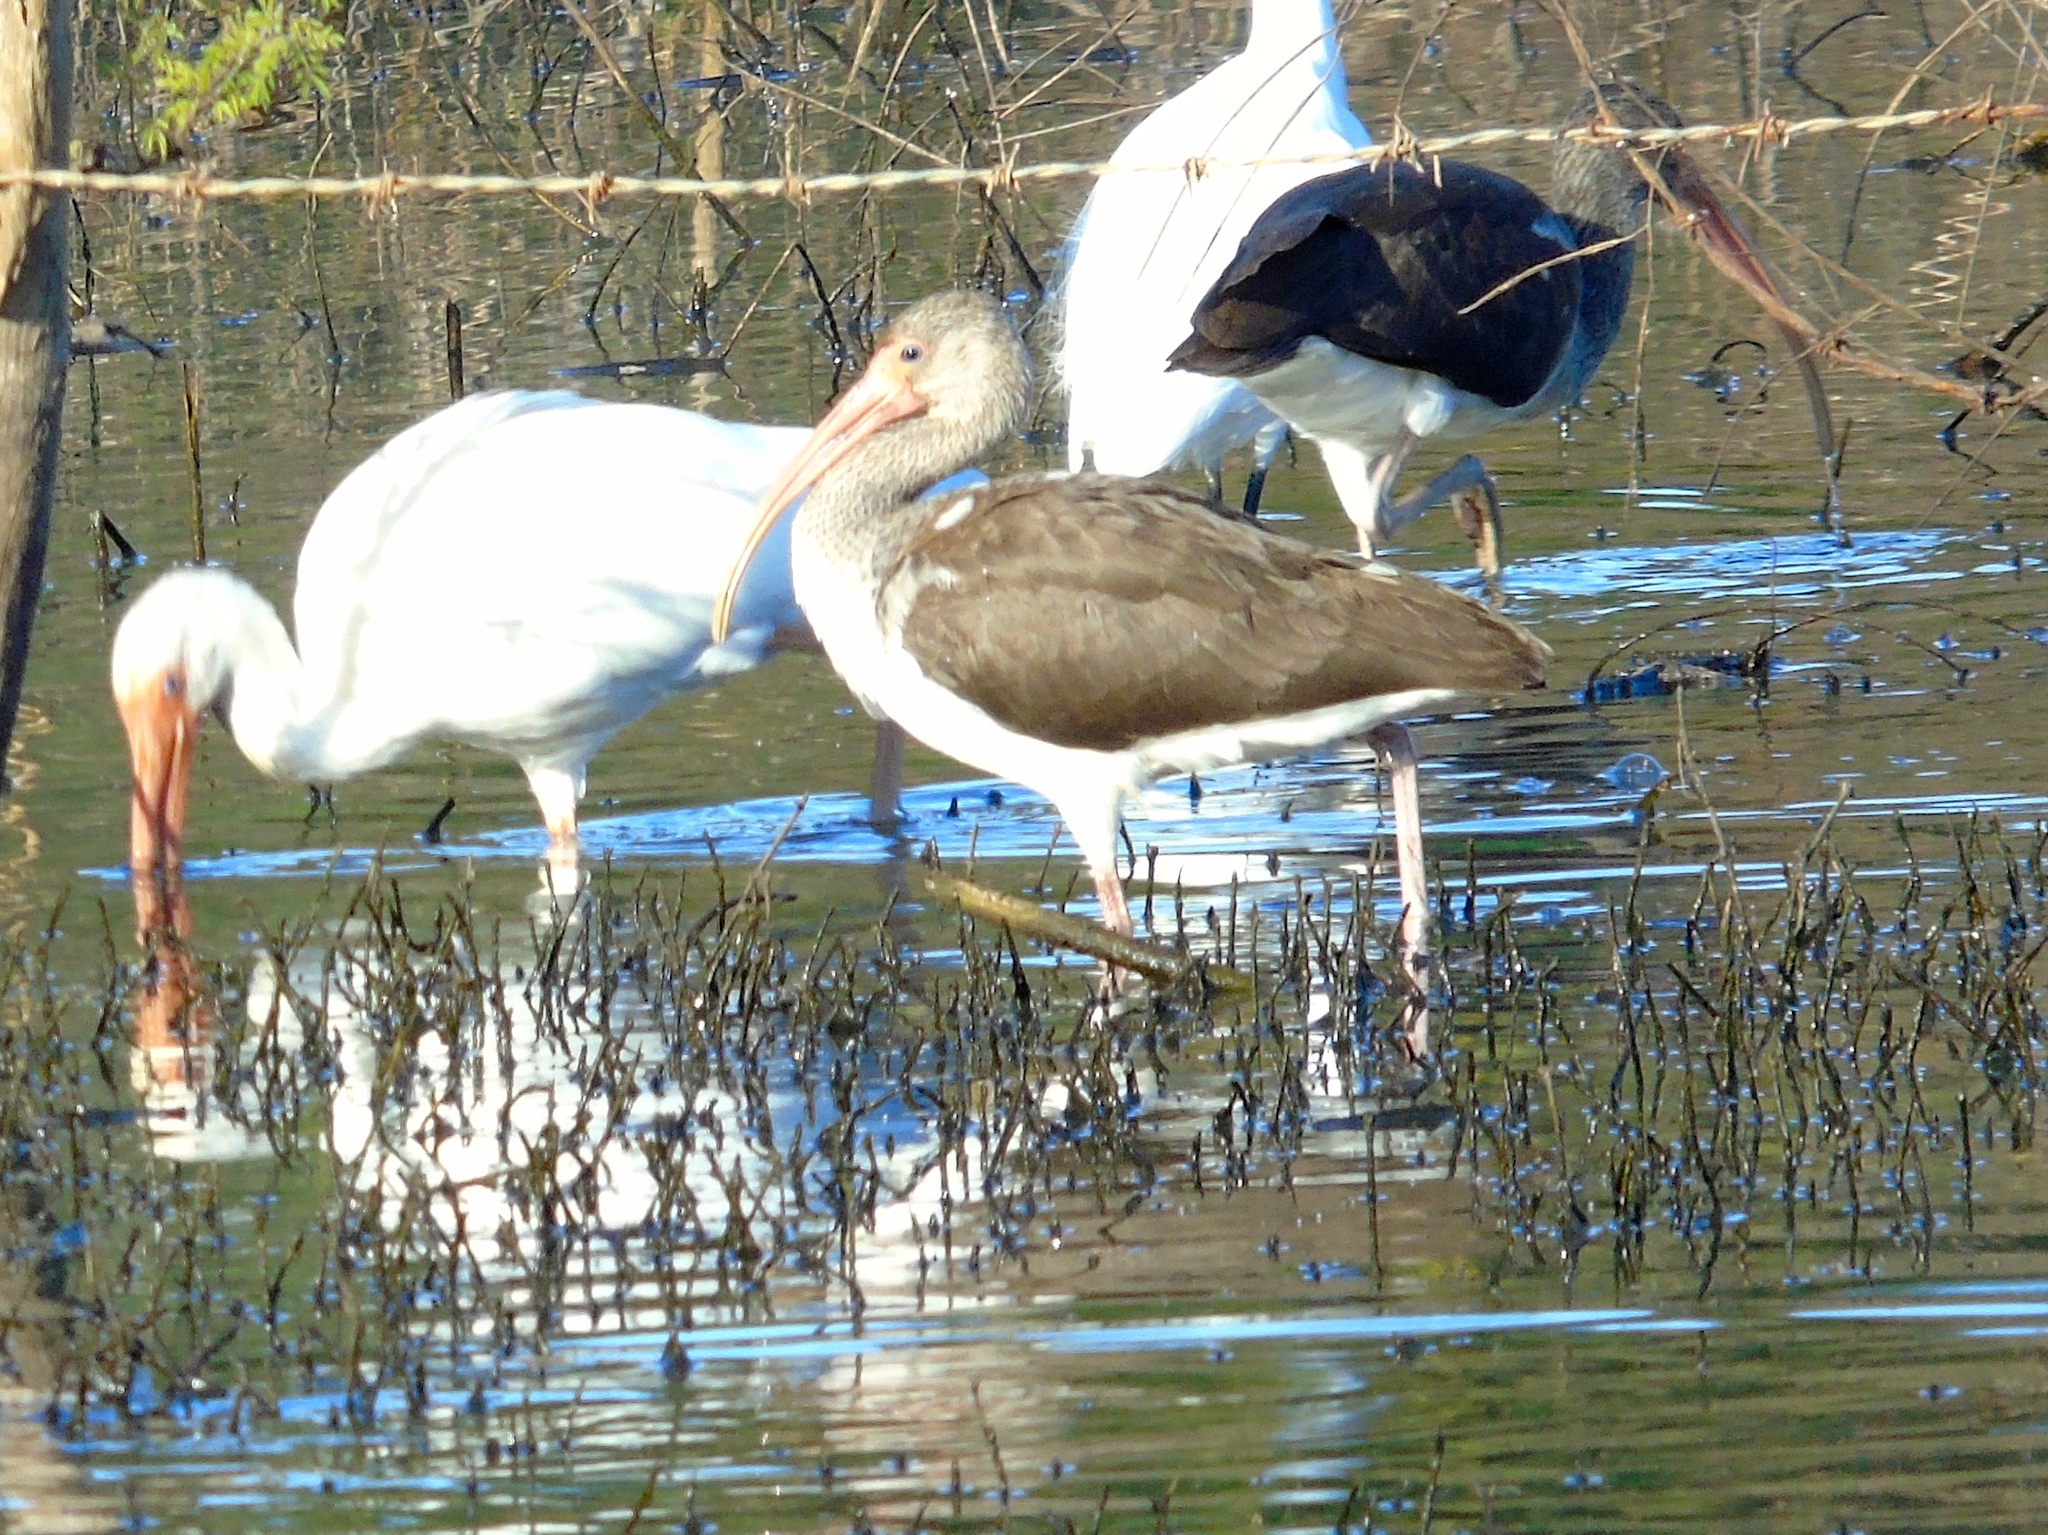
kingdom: Animalia
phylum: Chordata
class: Aves
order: Pelecaniformes
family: Threskiornithidae
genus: Eudocimus
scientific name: Eudocimus albus
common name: White ibis
